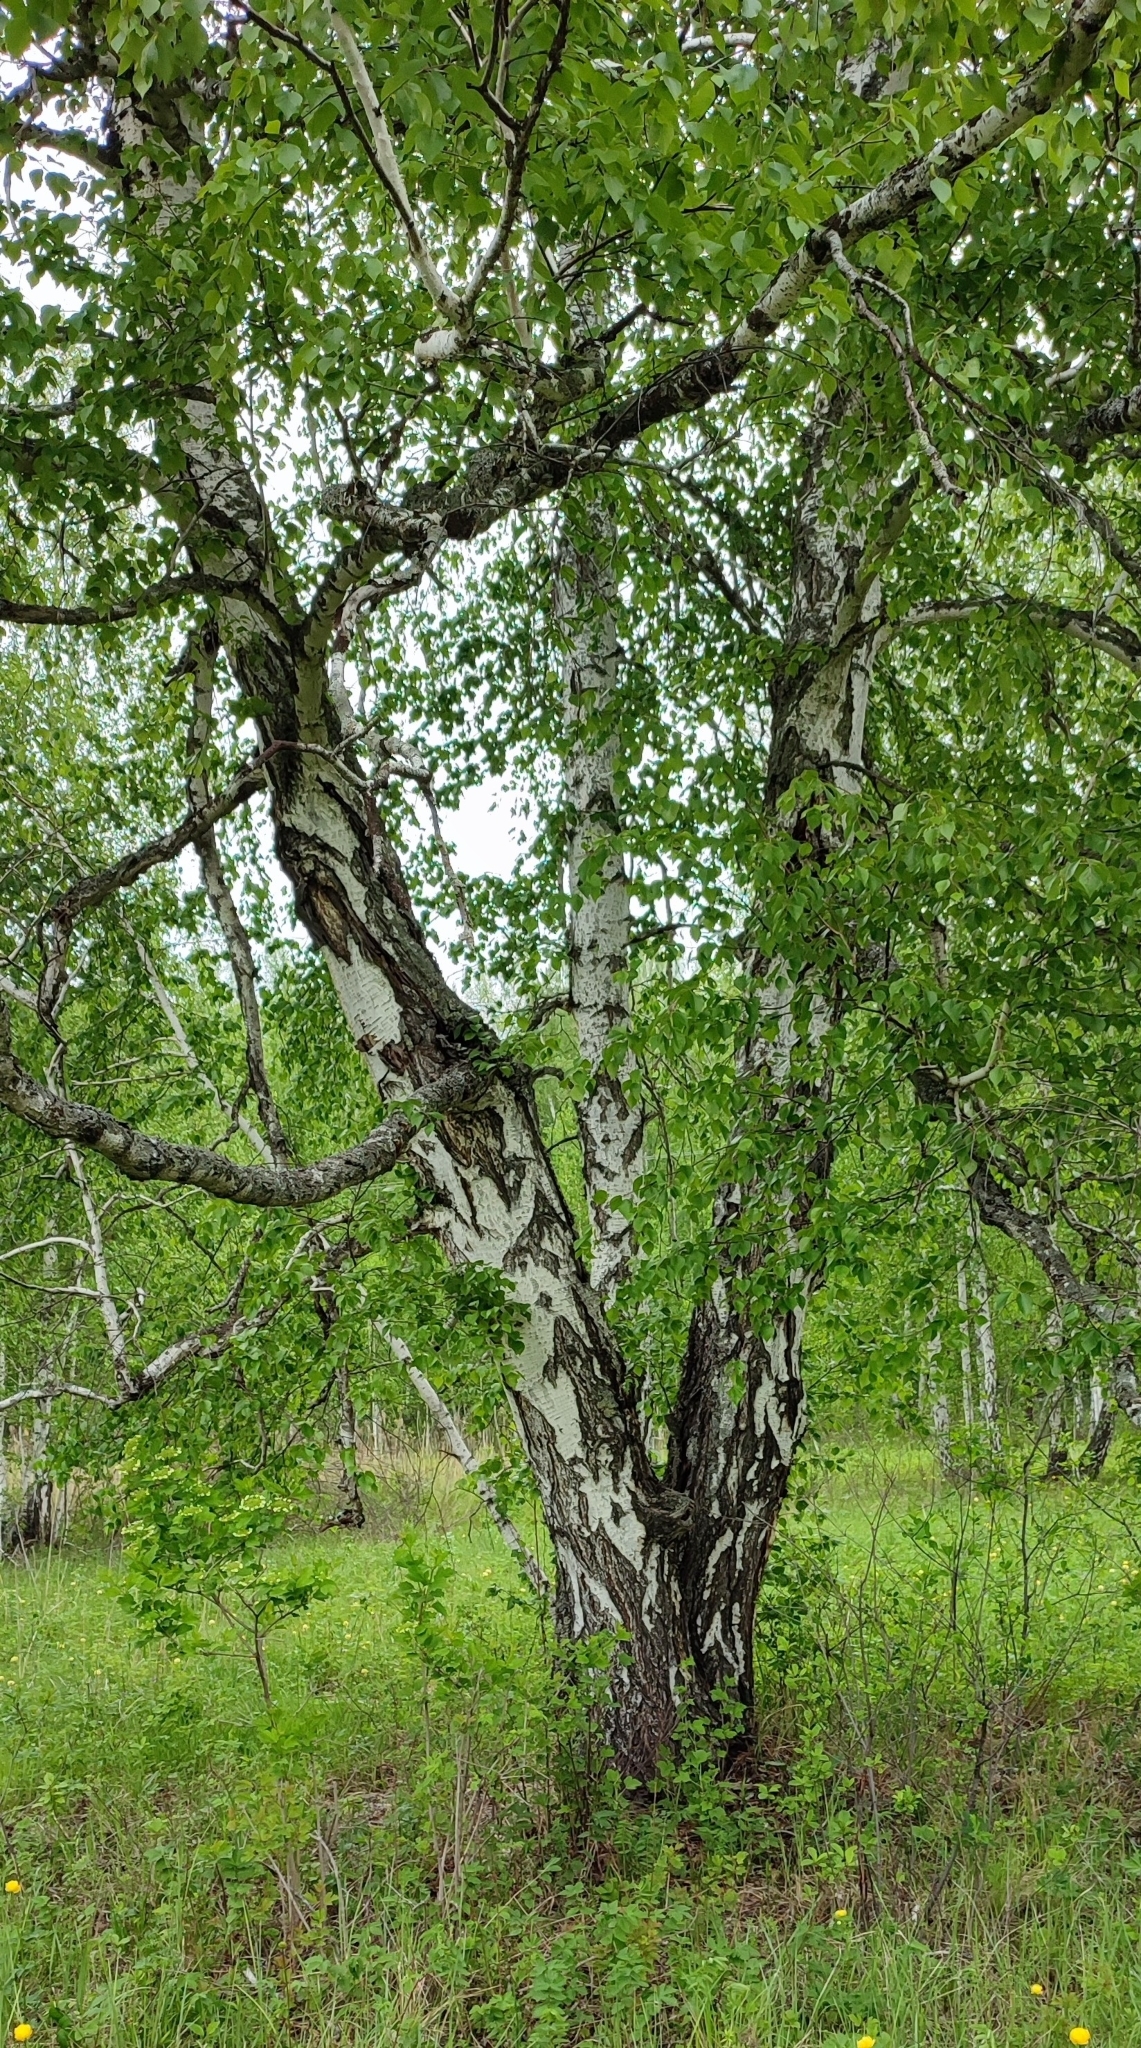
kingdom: Plantae
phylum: Tracheophyta
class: Magnoliopsida
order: Fagales
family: Betulaceae
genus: Betula
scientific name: Betula pendula
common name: Silver birch
